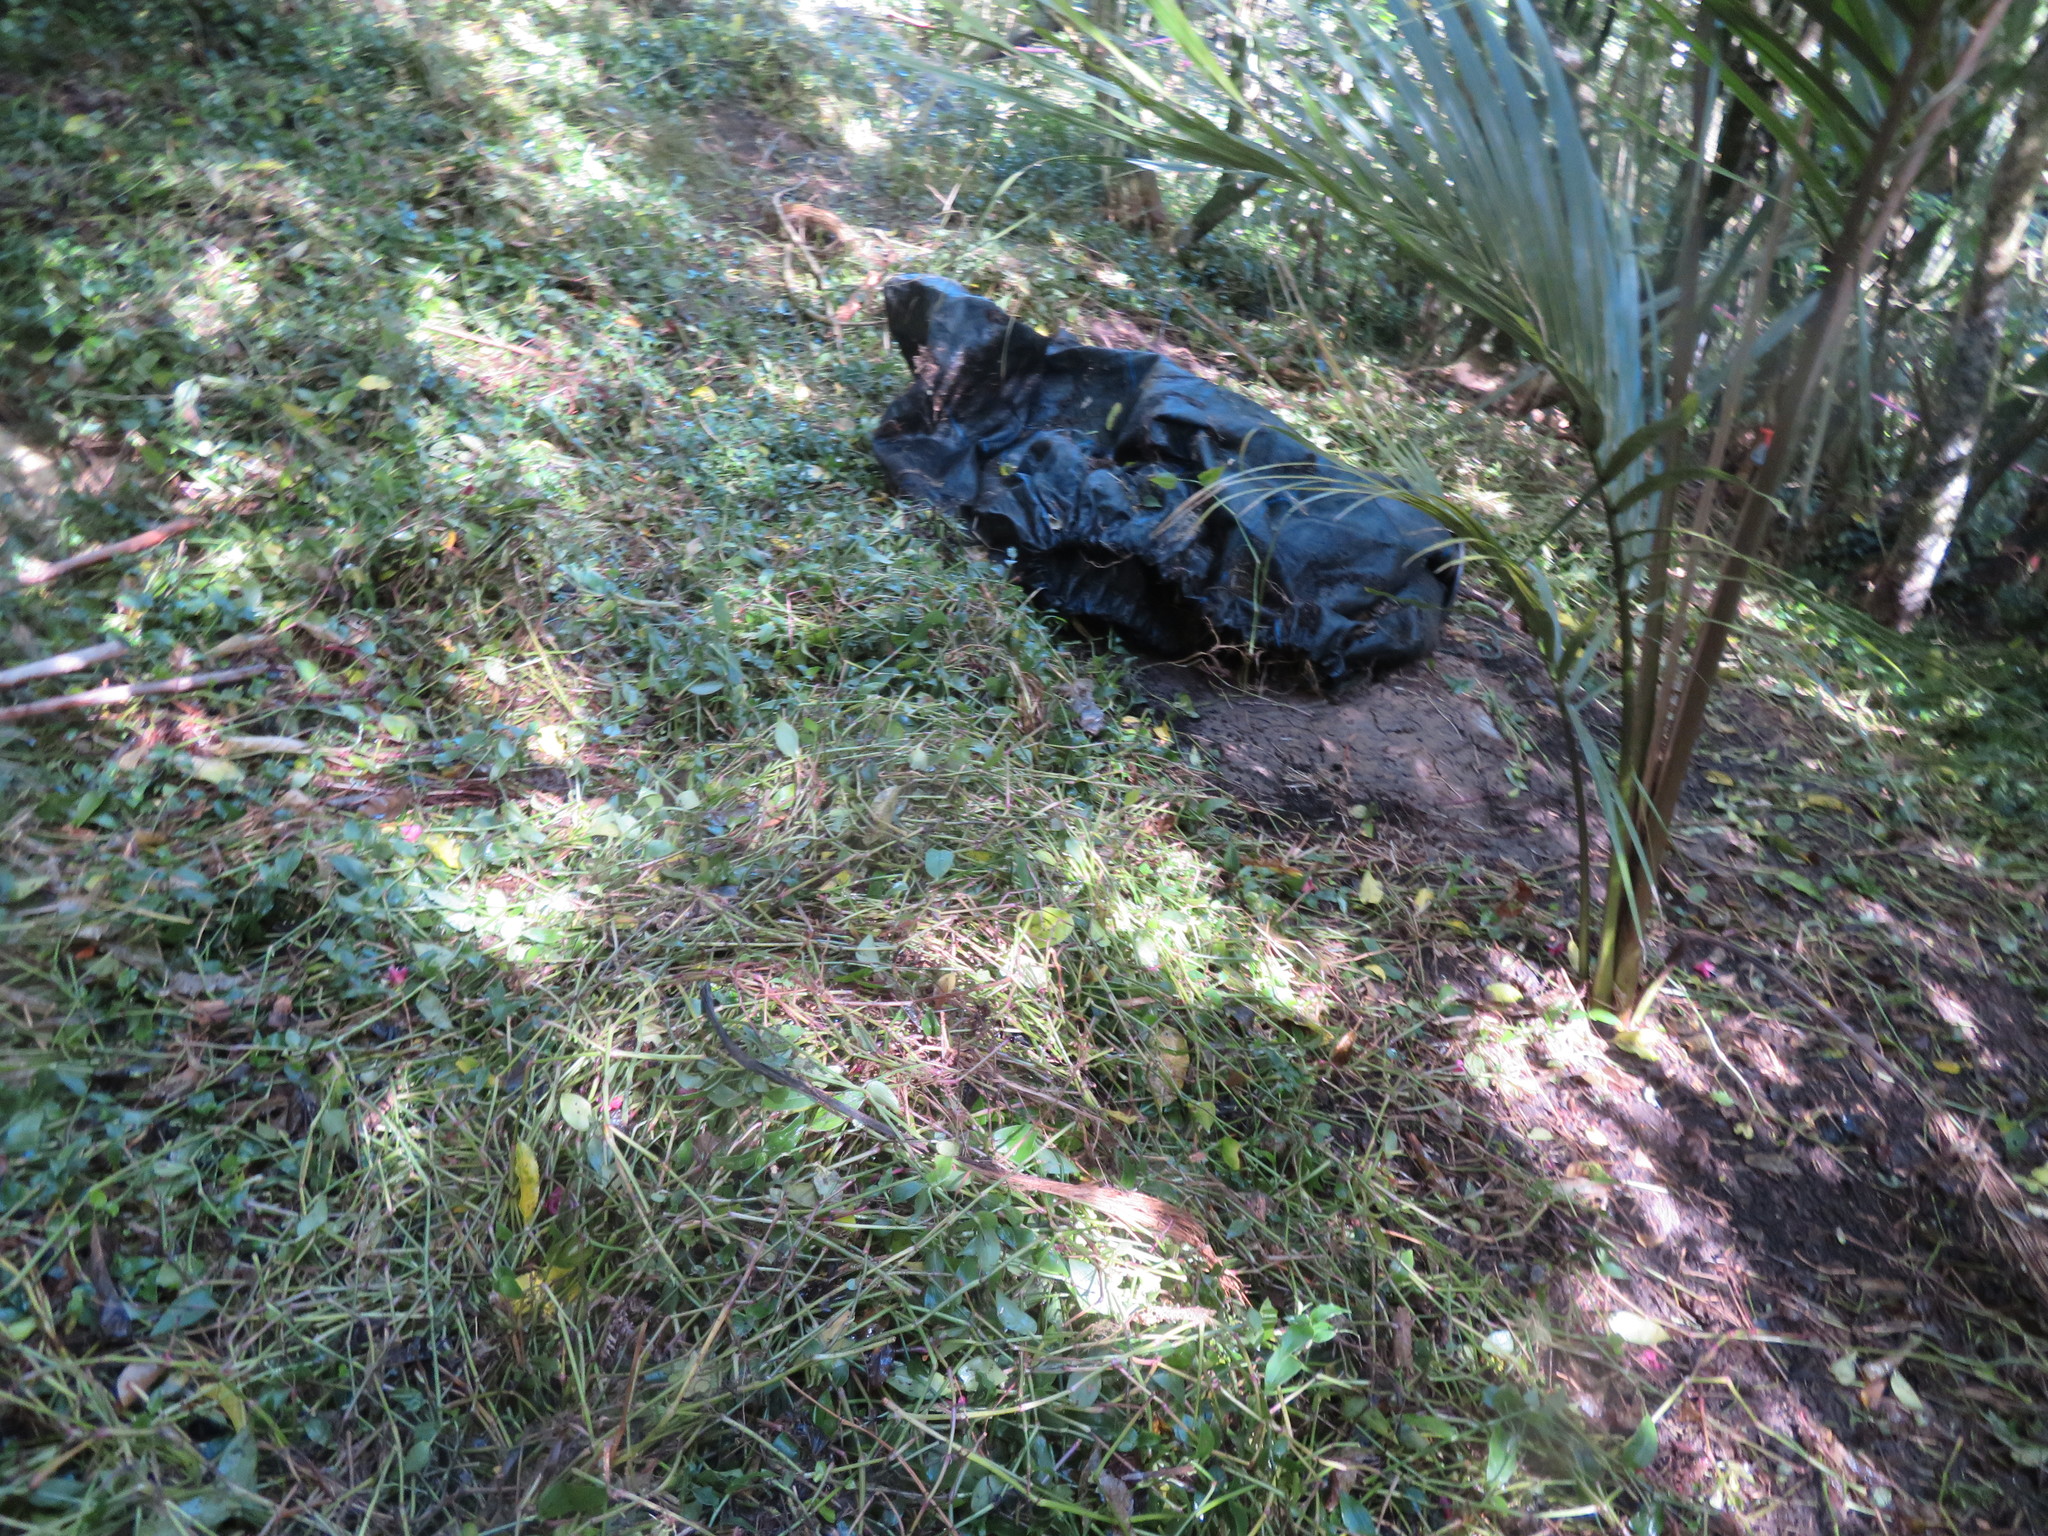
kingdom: Plantae
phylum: Tracheophyta
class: Liliopsida
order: Commelinales
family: Commelinaceae
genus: Tradescantia
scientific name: Tradescantia fluminensis
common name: Wandering-jew
